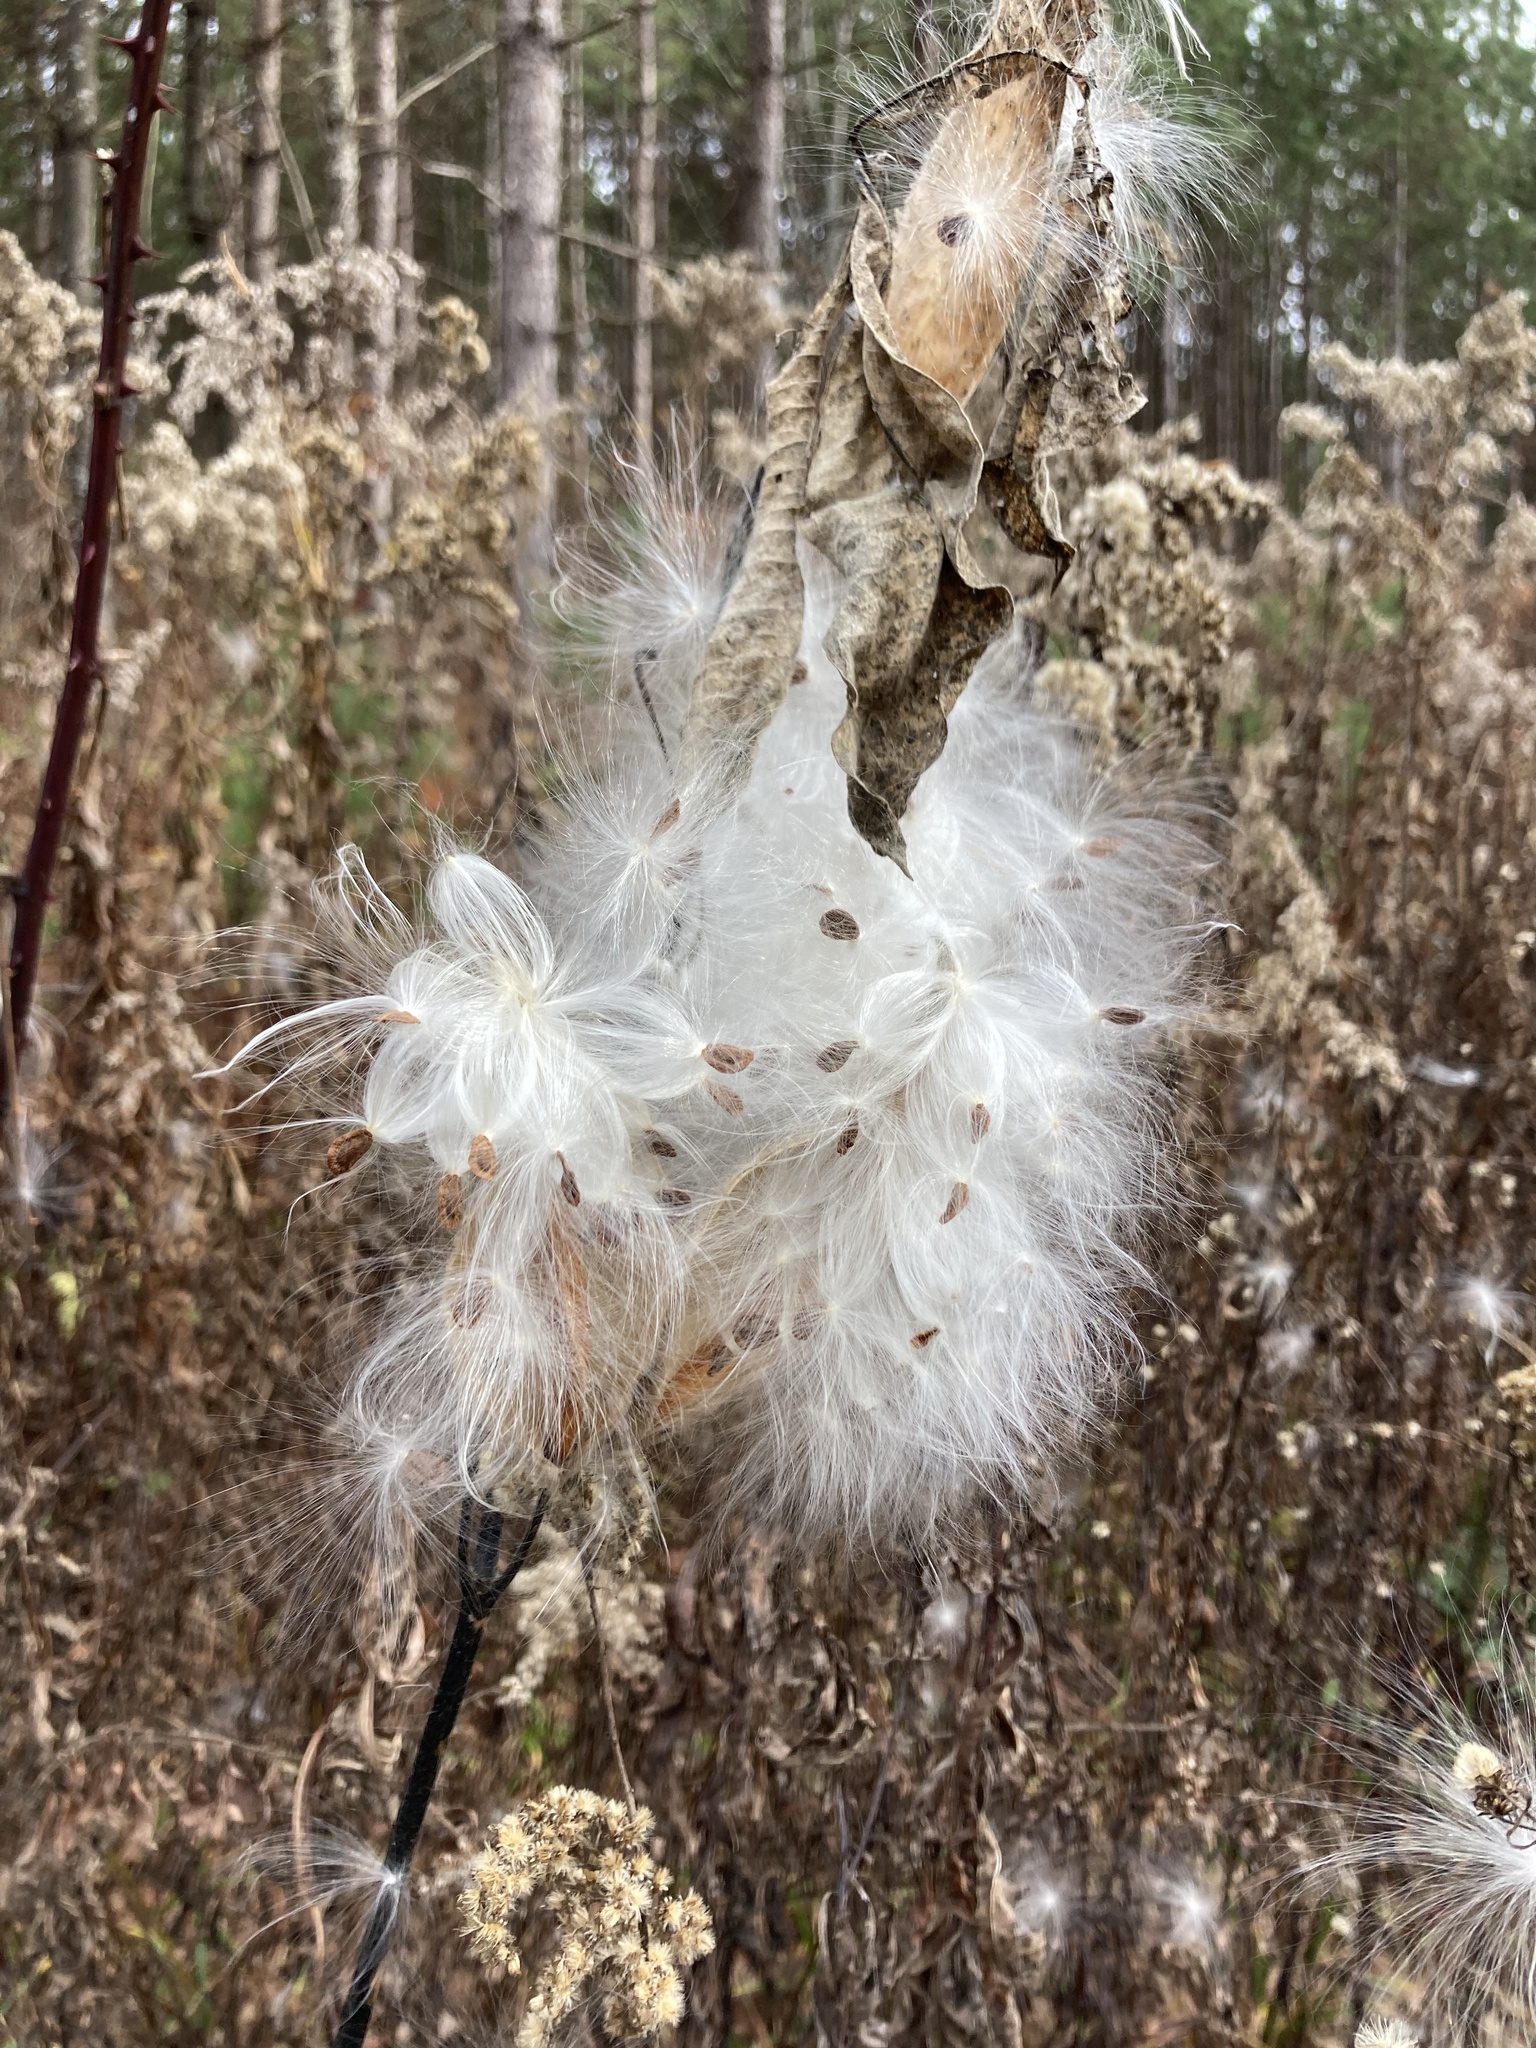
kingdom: Plantae
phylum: Tracheophyta
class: Magnoliopsida
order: Gentianales
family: Apocynaceae
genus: Asclepias
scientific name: Asclepias syriaca
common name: Common milkweed
